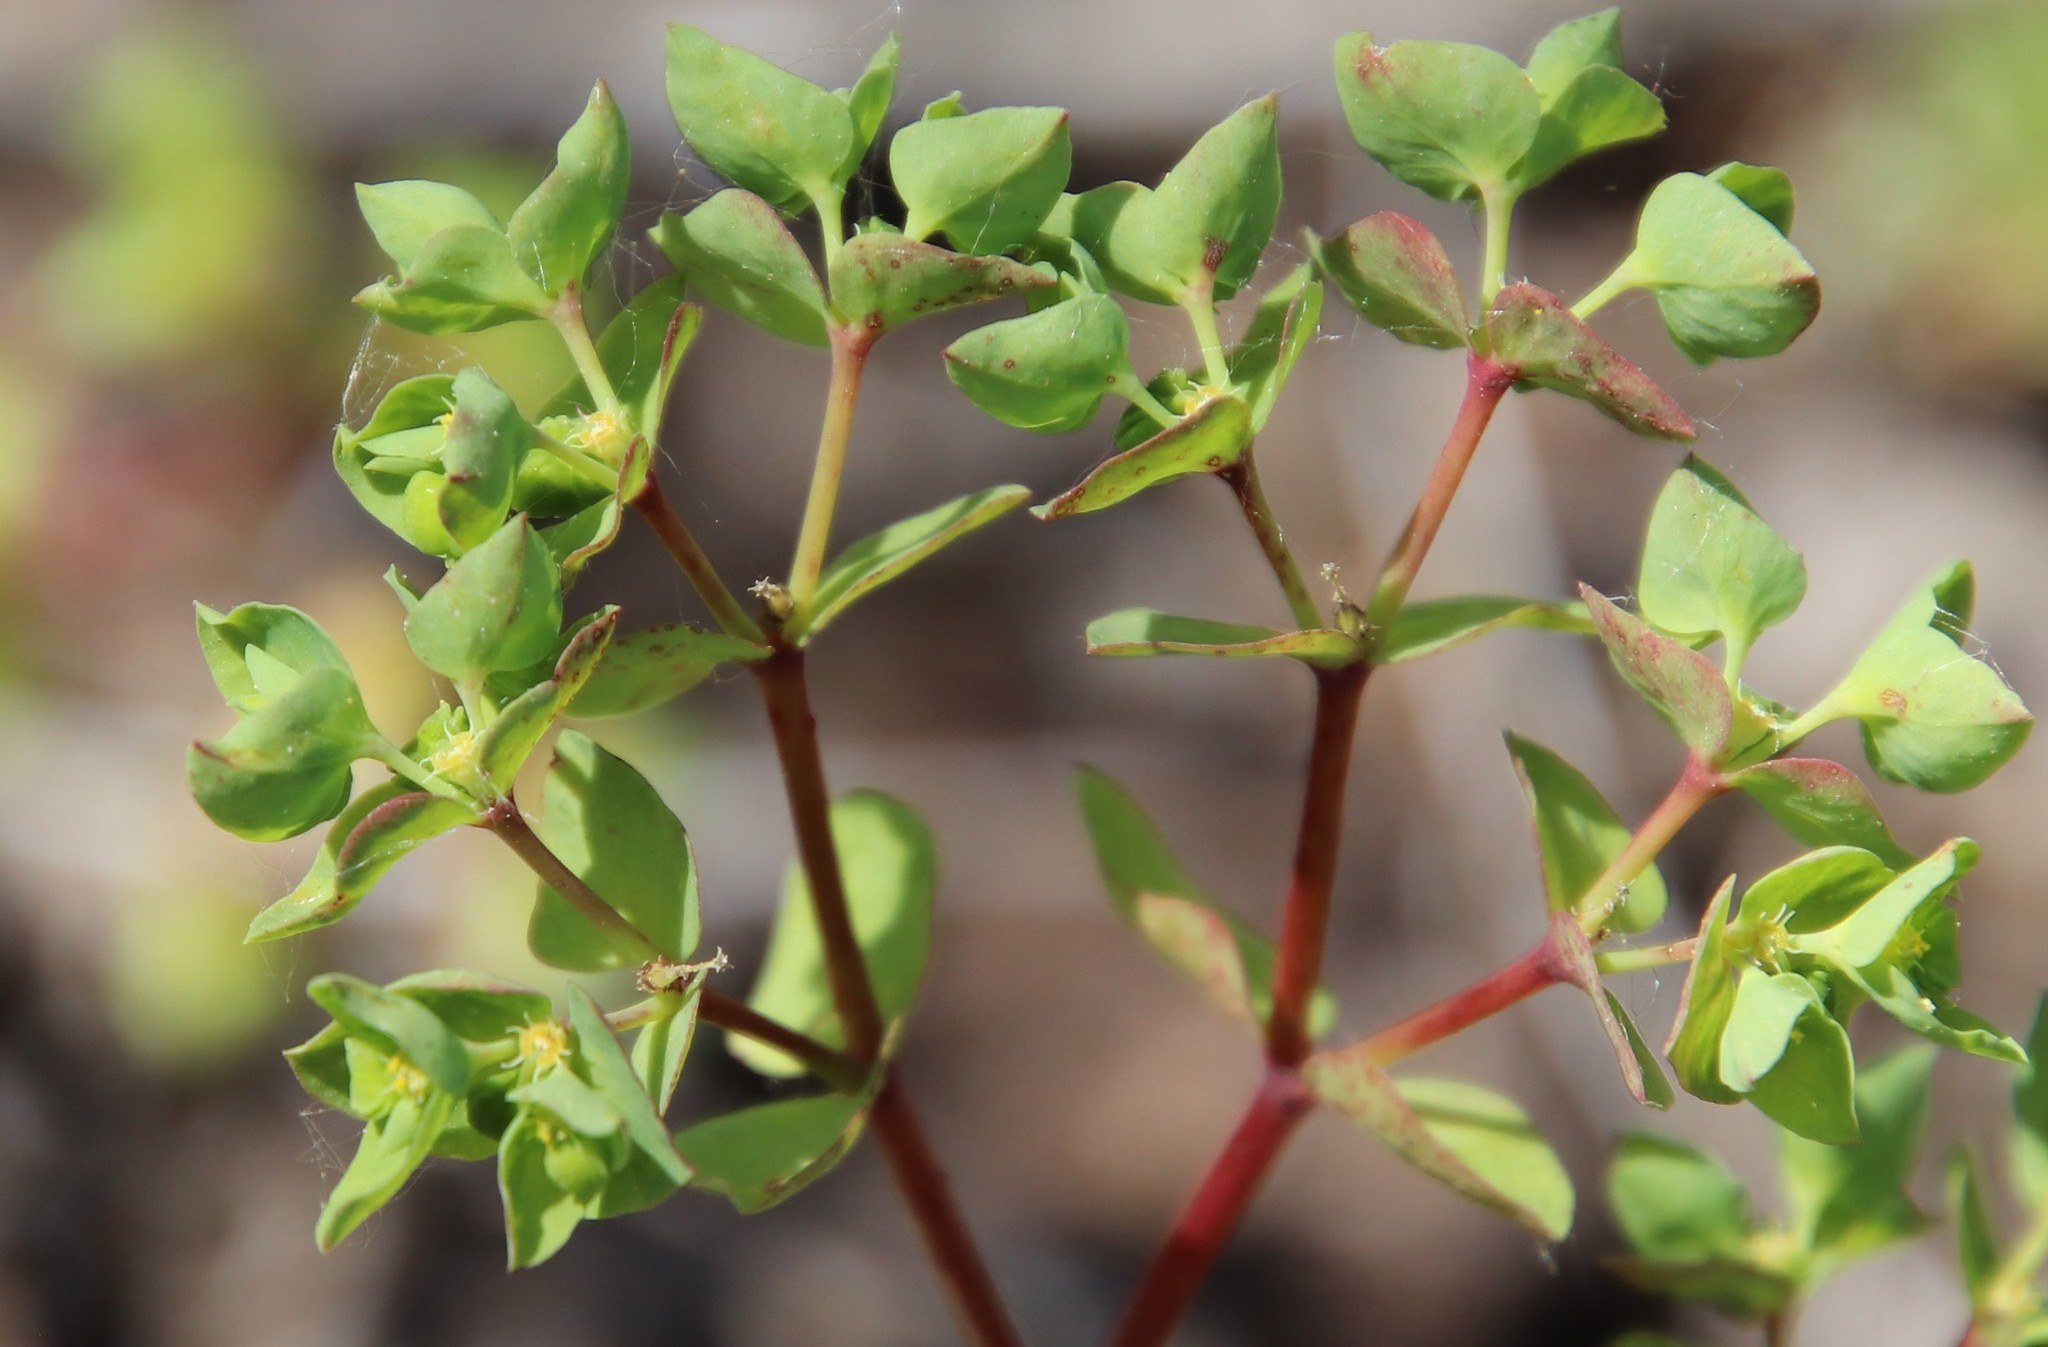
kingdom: Plantae
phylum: Tracheophyta
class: Magnoliopsida
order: Malpighiales
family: Euphorbiaceae
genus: Euphorbia
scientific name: Euphorbia peplus
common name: Petty spurge
